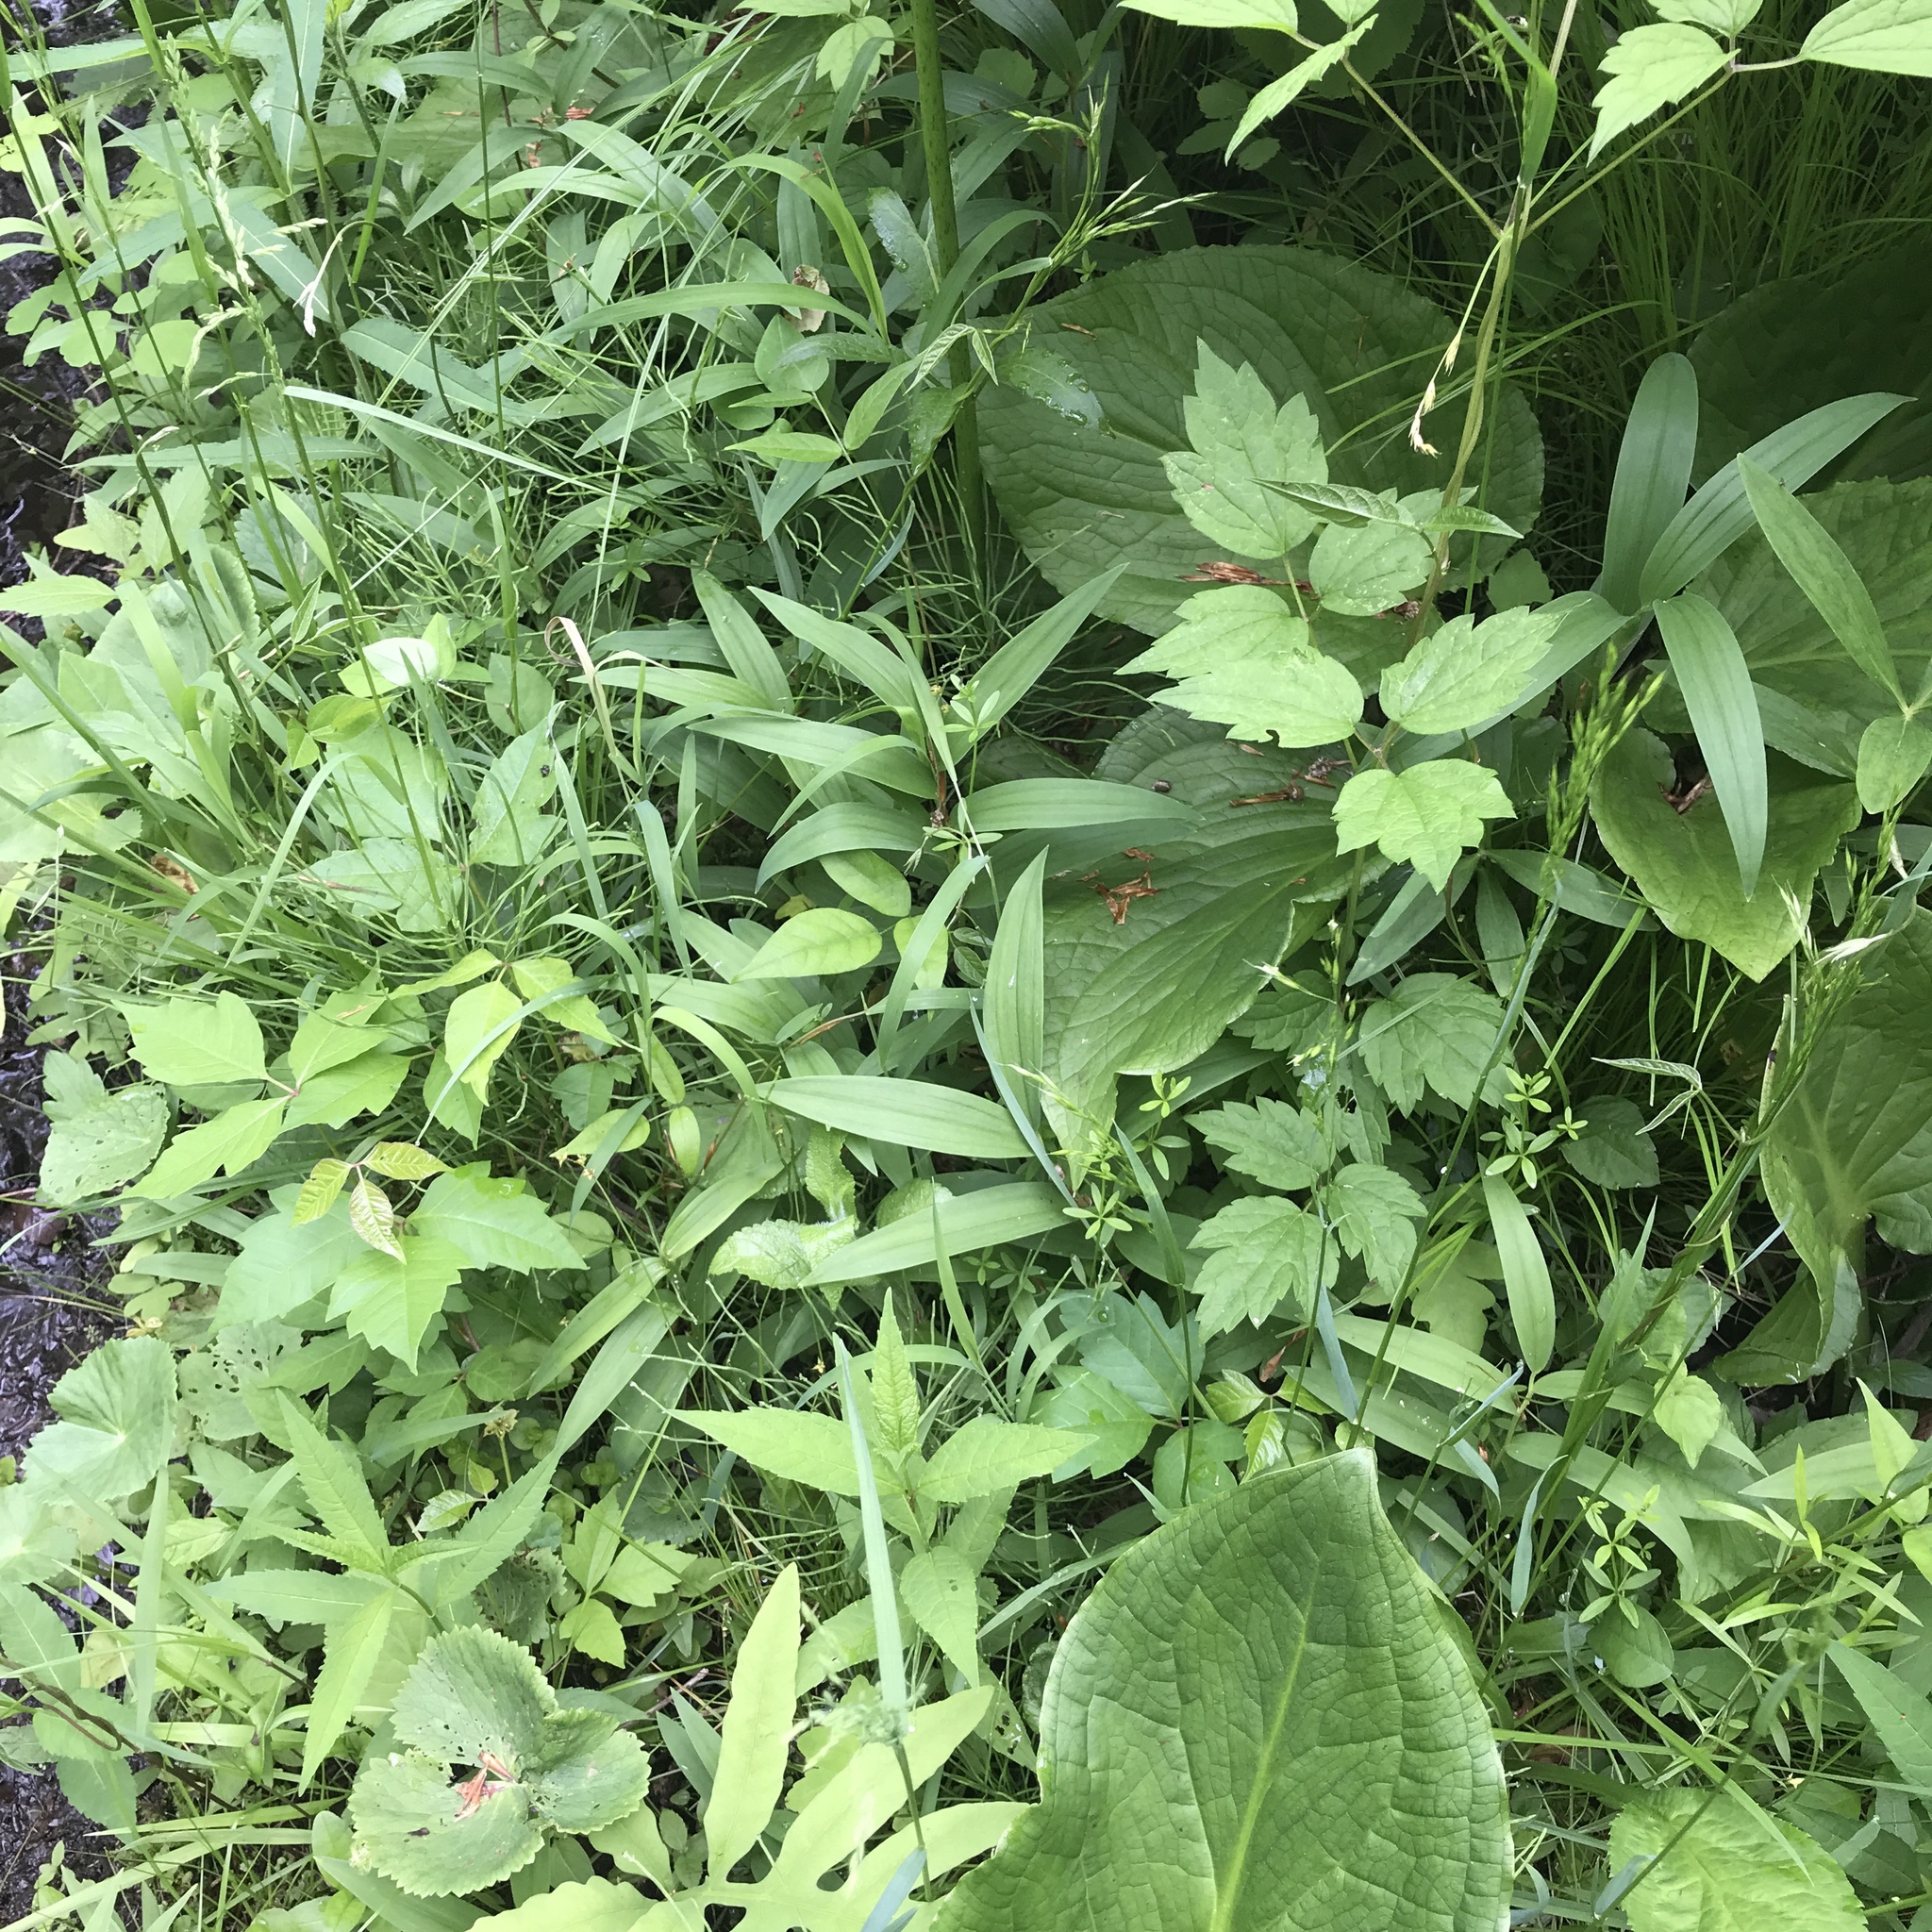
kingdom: Plantae
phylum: Tracheophyta
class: Liliopsida
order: Asparagales
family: Asparagaceae
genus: Maianthemum
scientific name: Maianthemum stellatum
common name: Little false solomon's seal
